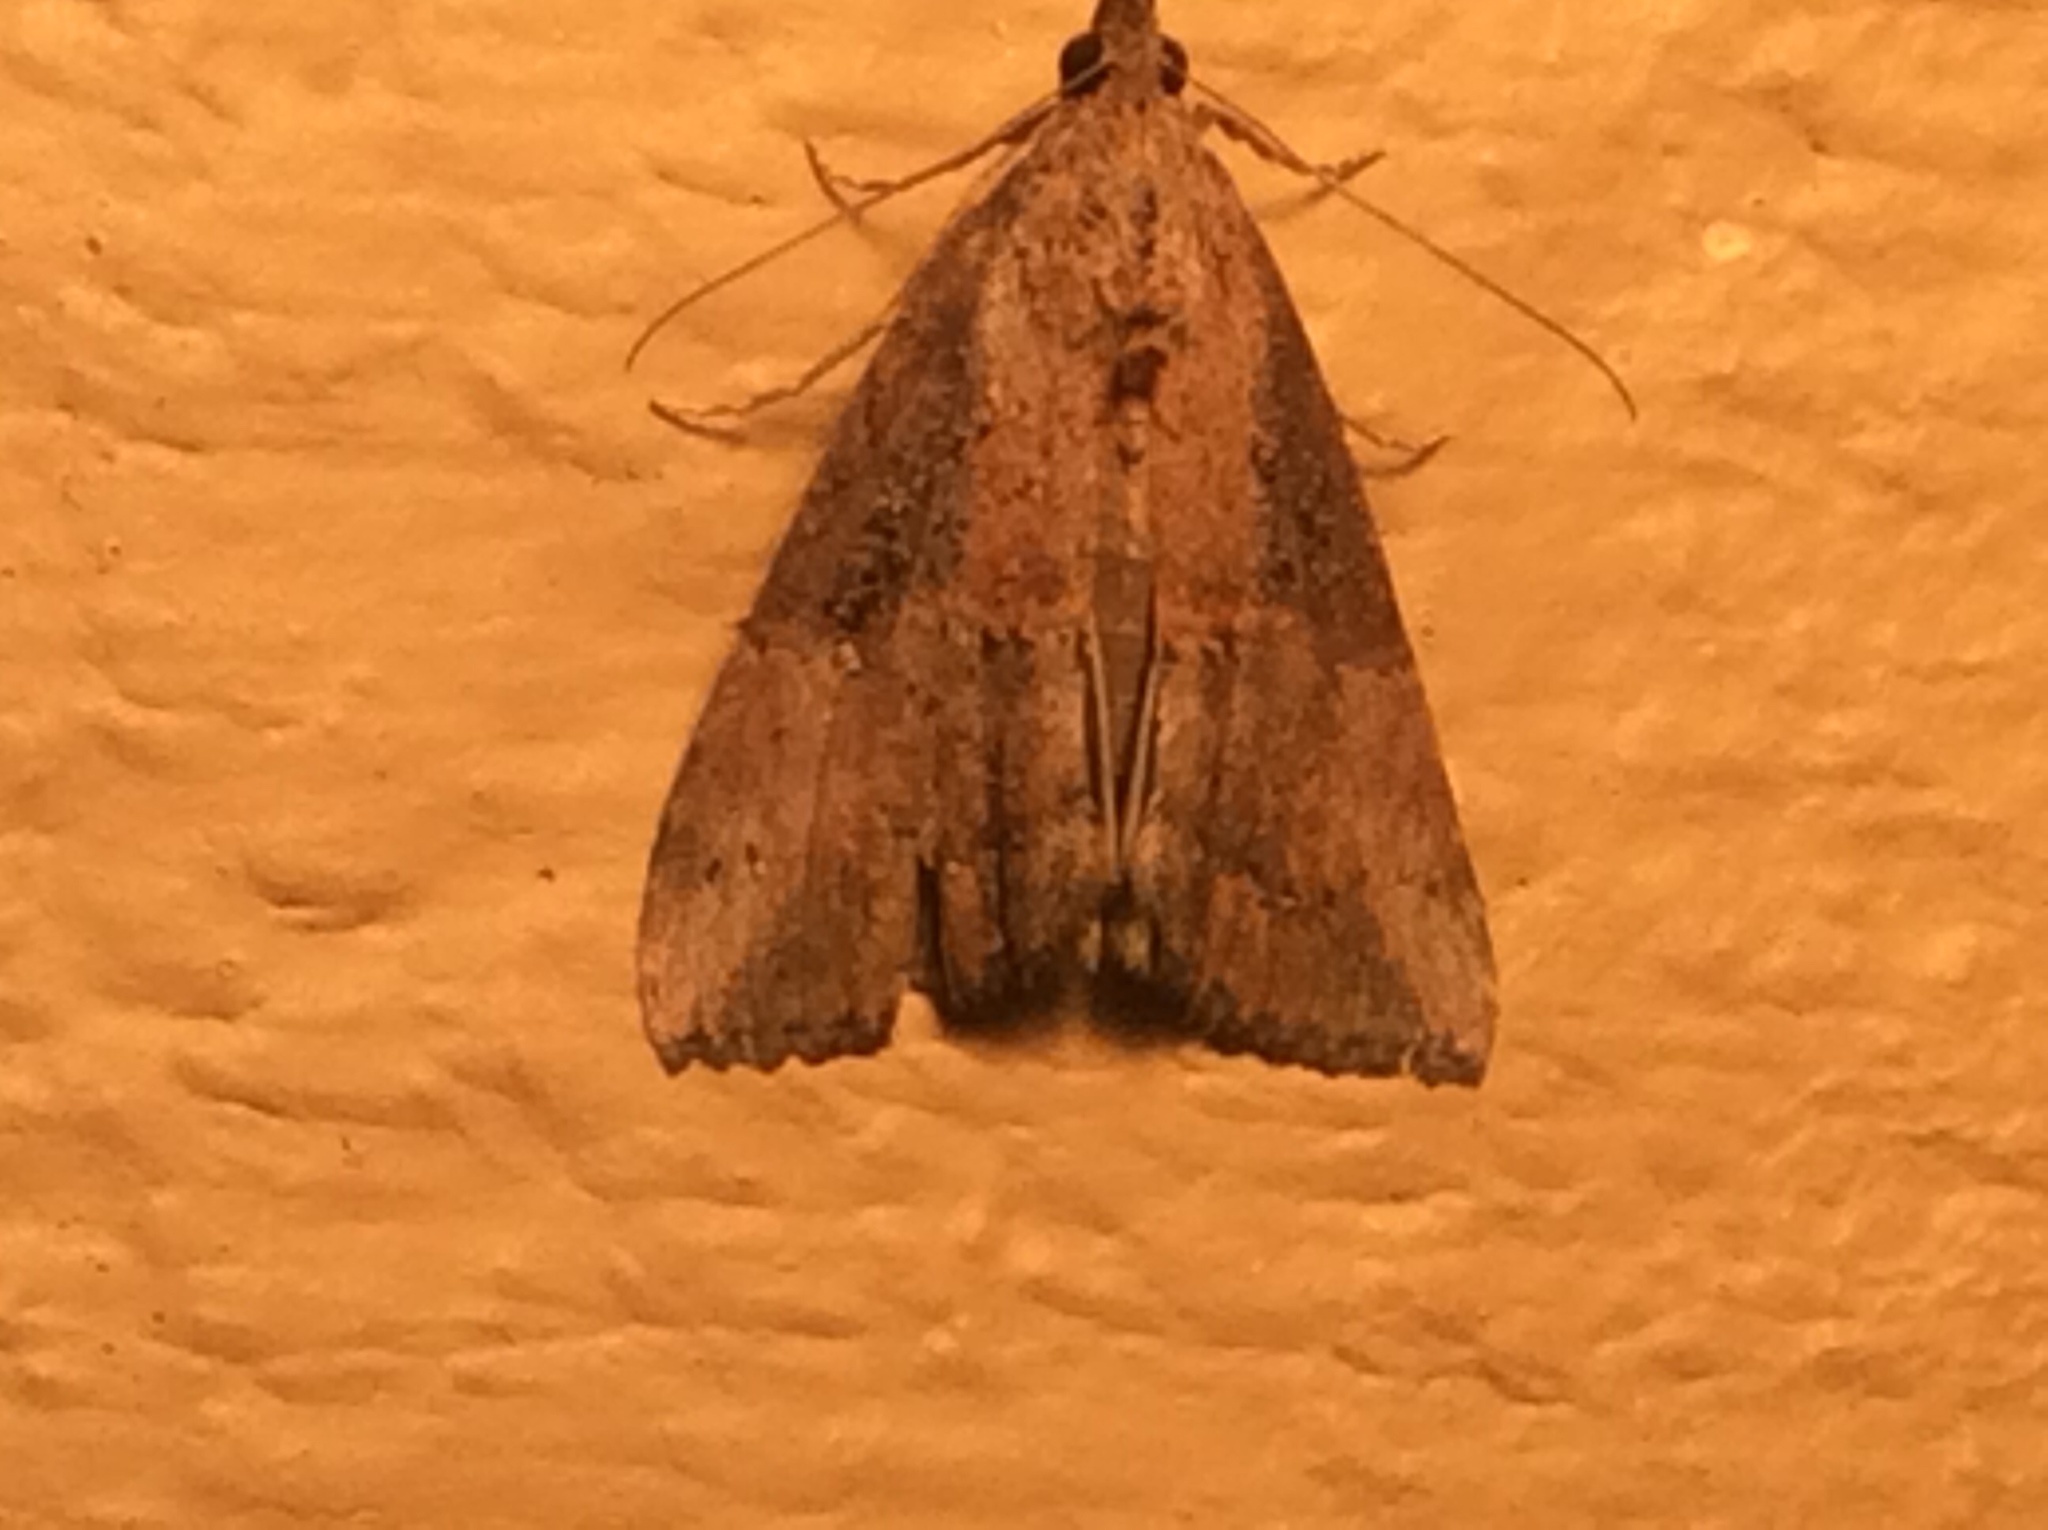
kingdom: Animalia
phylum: Arthropoda
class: Insecta
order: Lepidoptera
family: Erebidae
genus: Hypena
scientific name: Hypena scabra
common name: Green cloverworm
